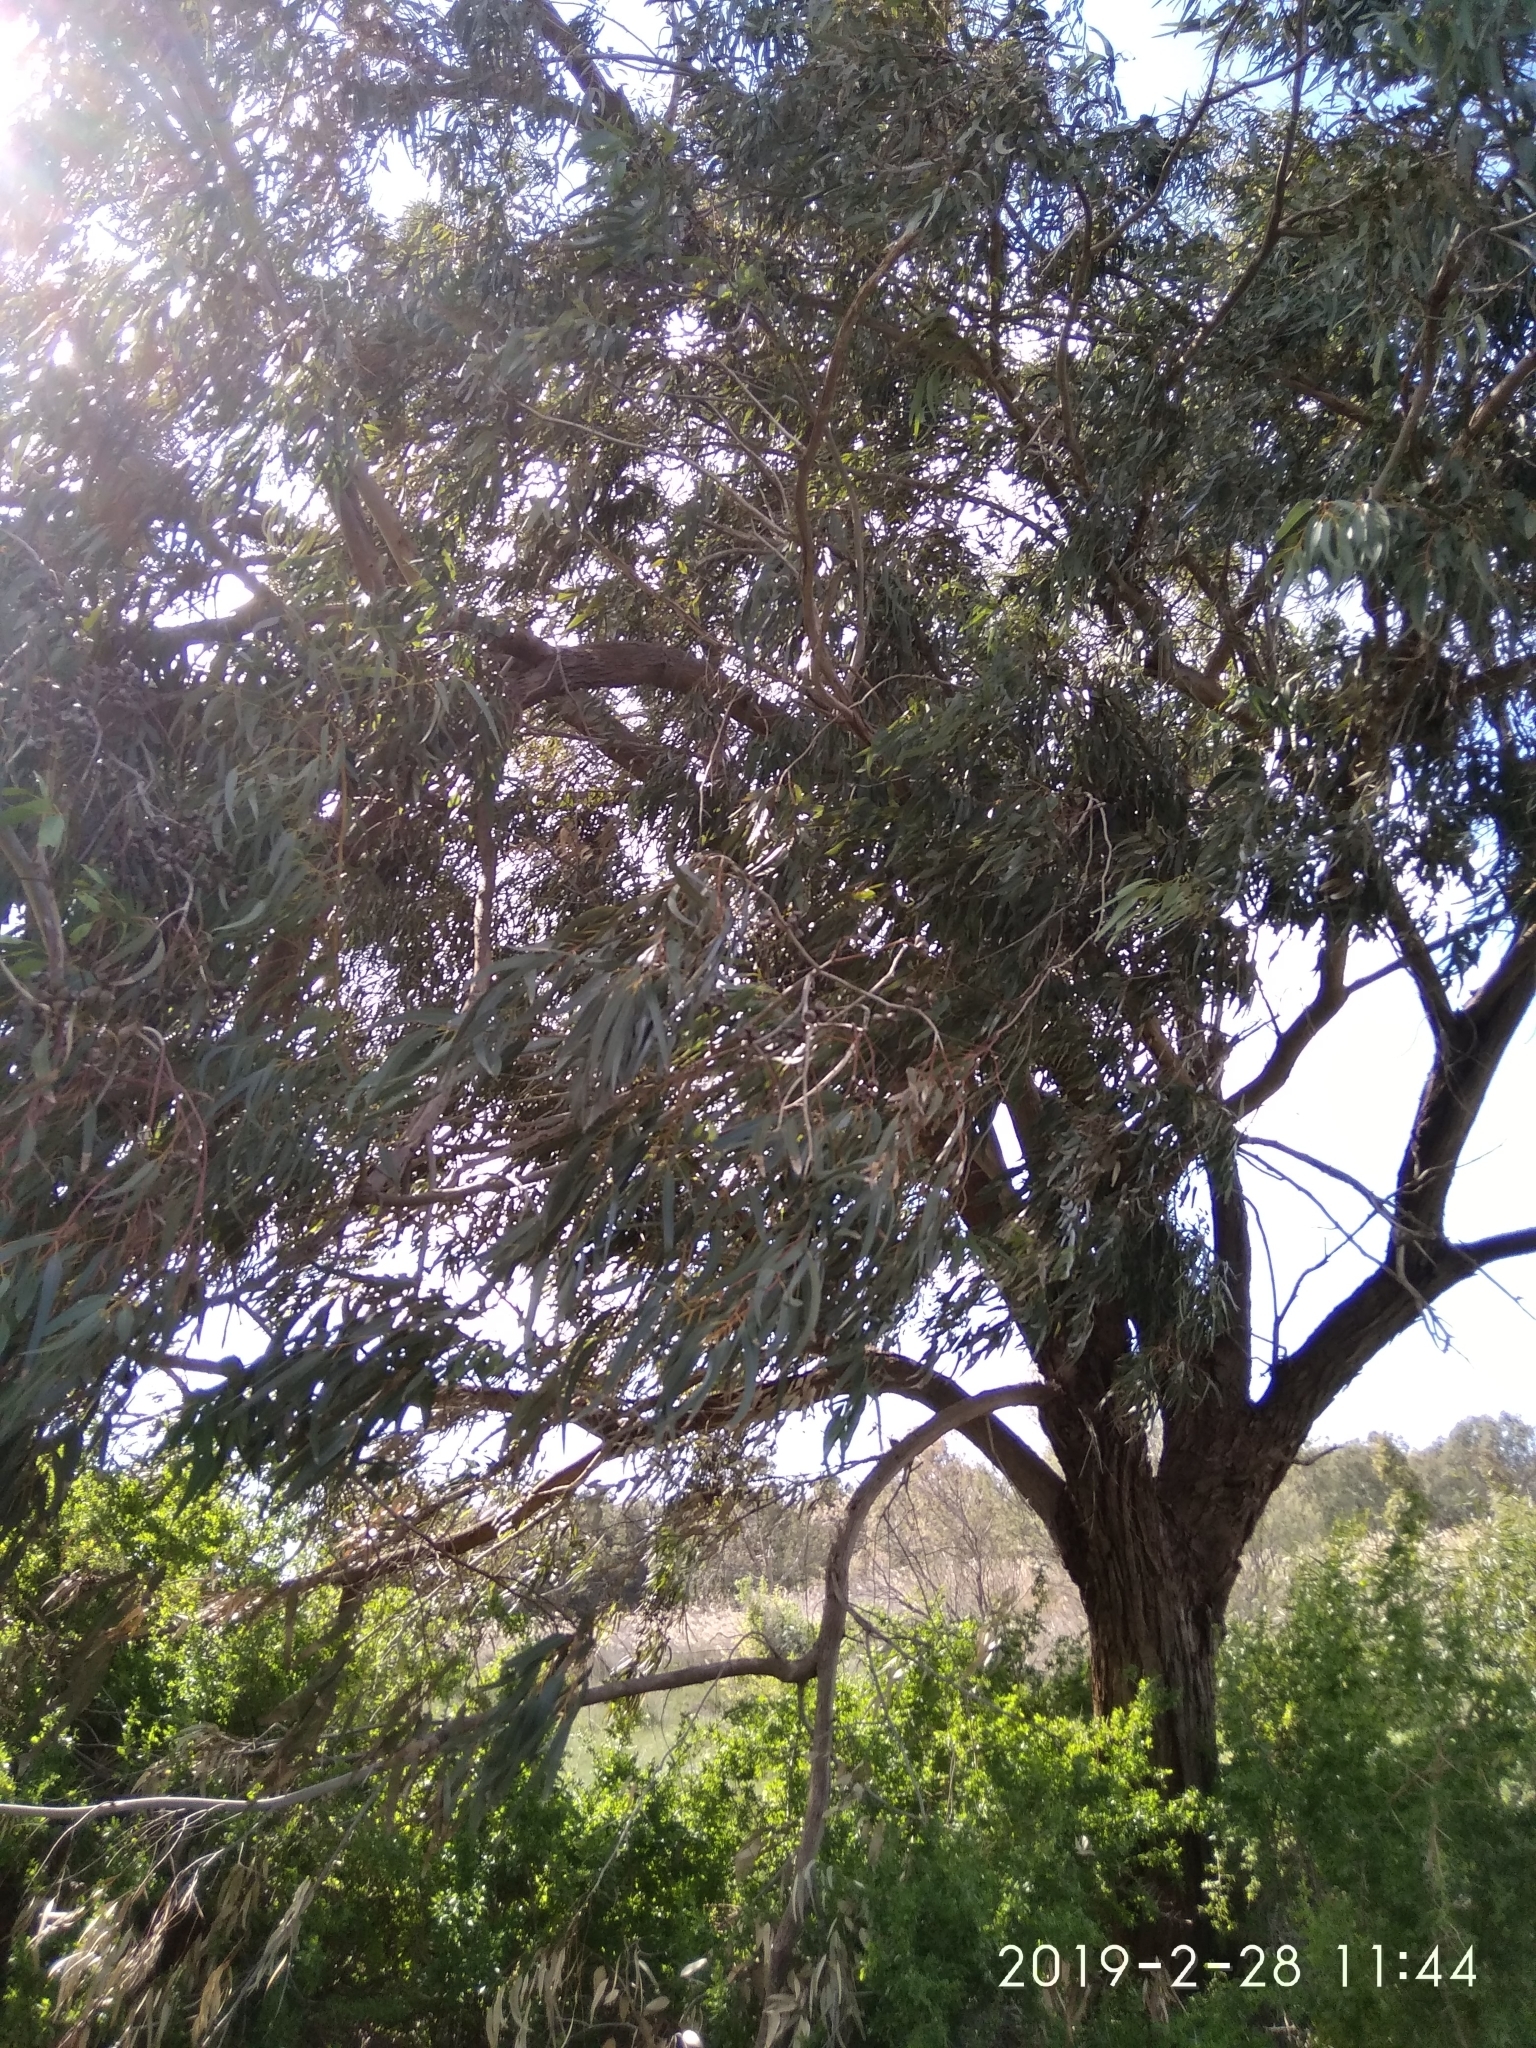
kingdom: Plantae
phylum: Tracheophyta
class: Magnoliopsida
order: Myrtales
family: Myrtaceae
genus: Eucalyptus
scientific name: Eucalyptus gomphocephala
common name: Tuart
